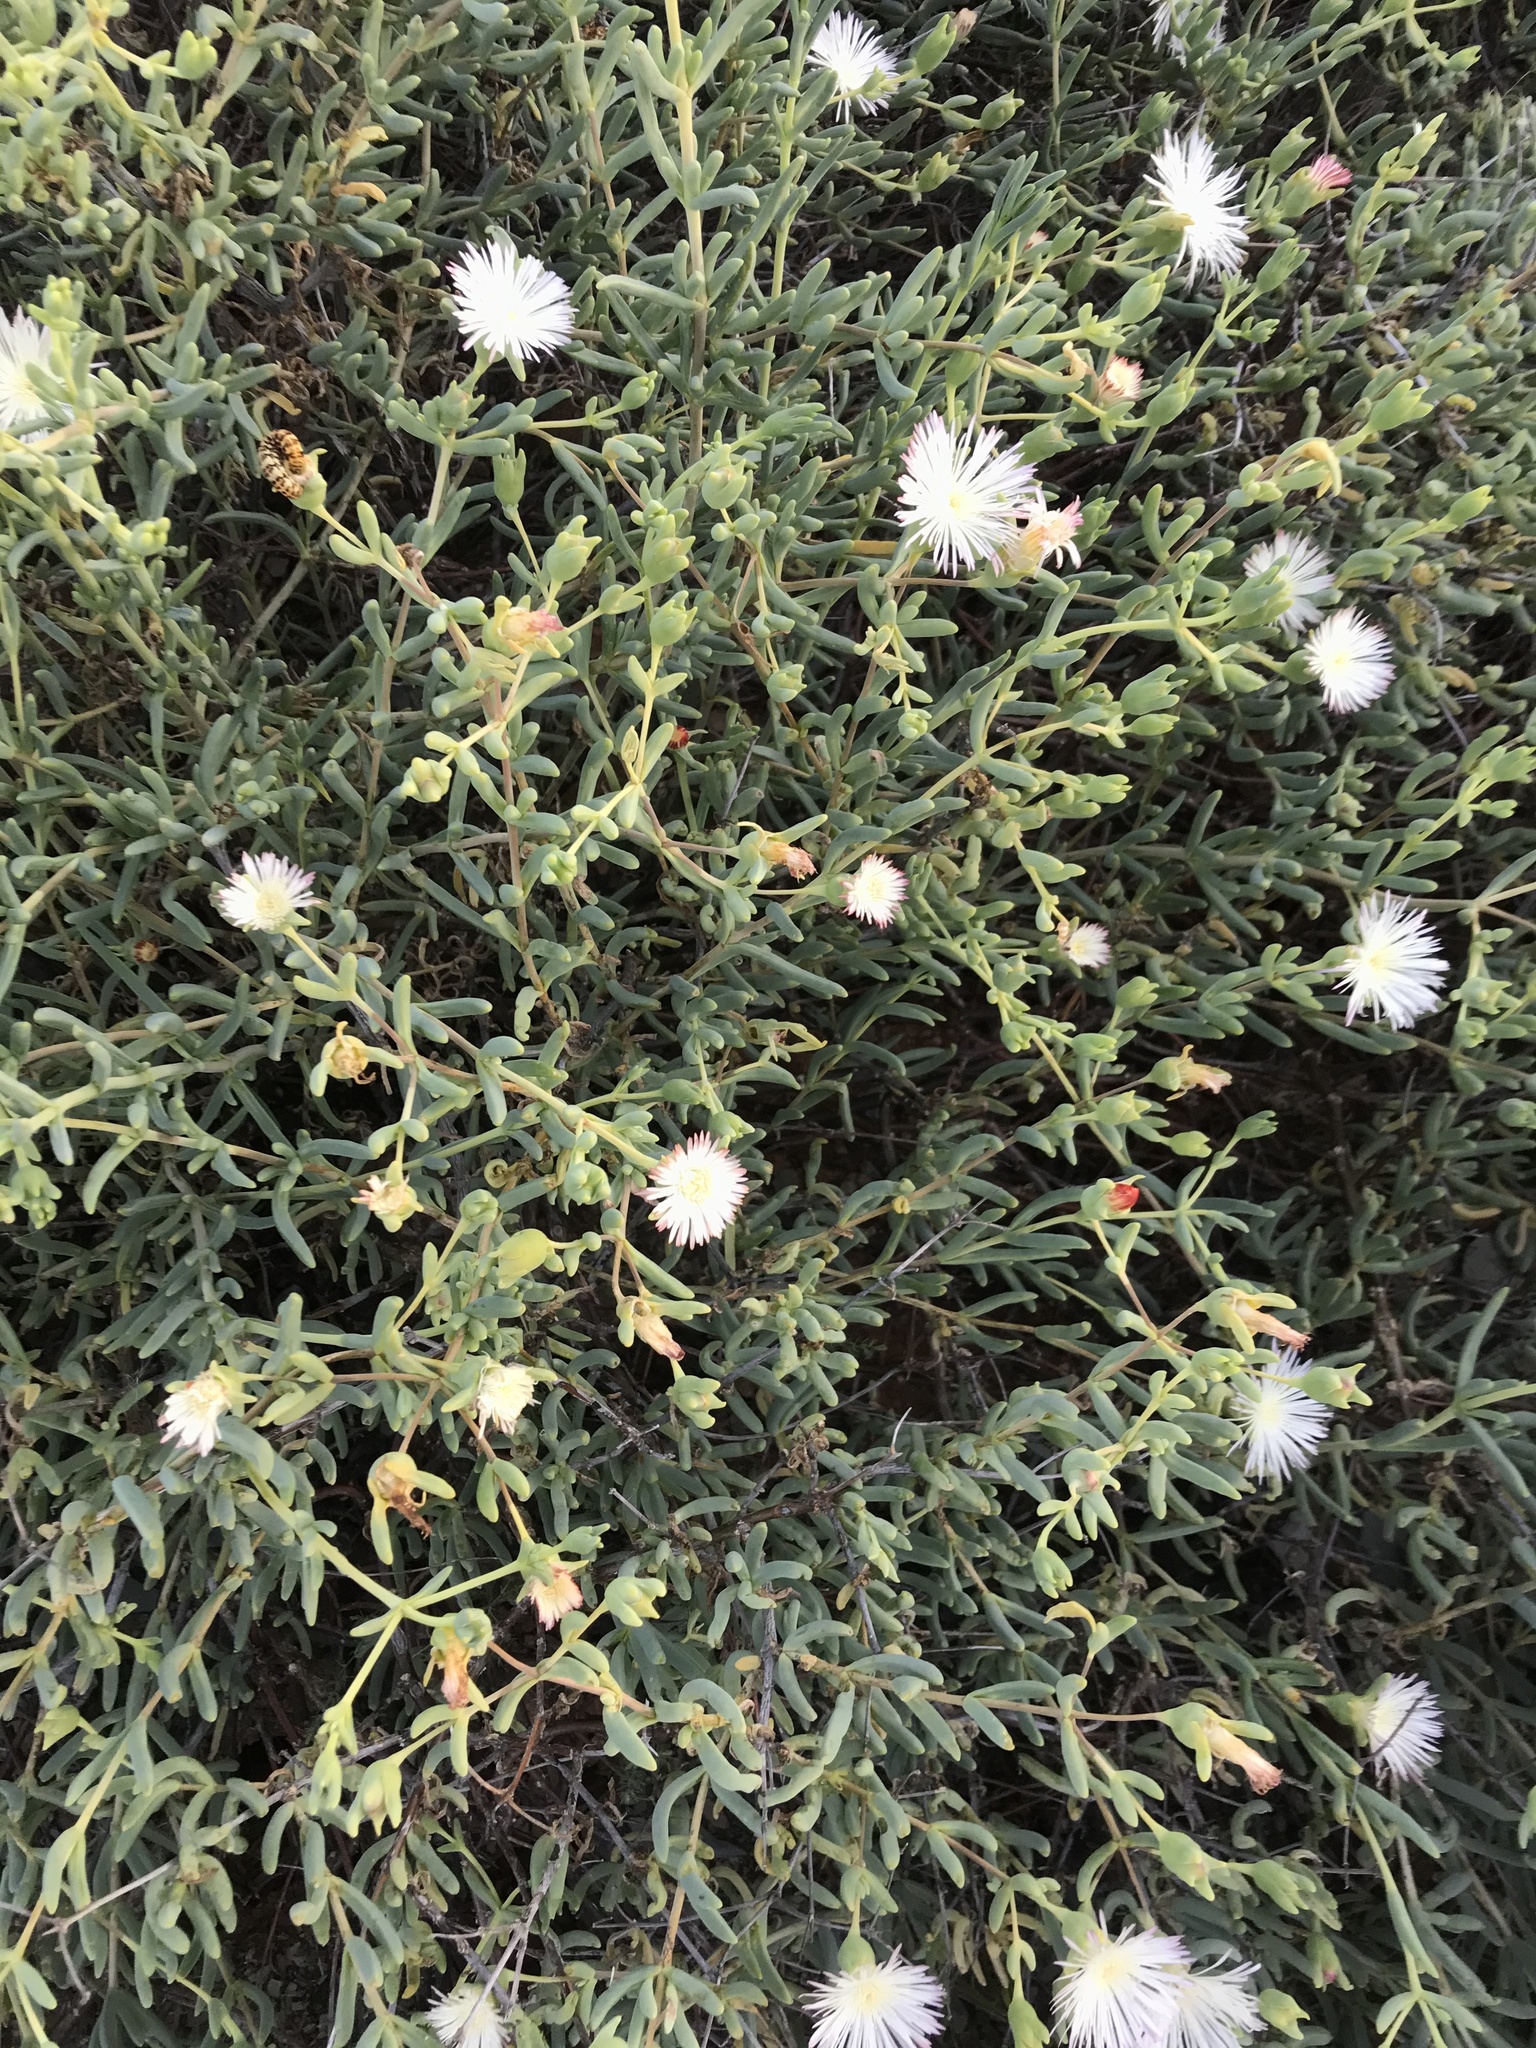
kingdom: Plantae
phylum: Tracheophyta
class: Magnoliopsida
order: Caryophyllales
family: Aizoaceae
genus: Mesembryanthemum
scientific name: Mesembryanthemum noctiflorum
